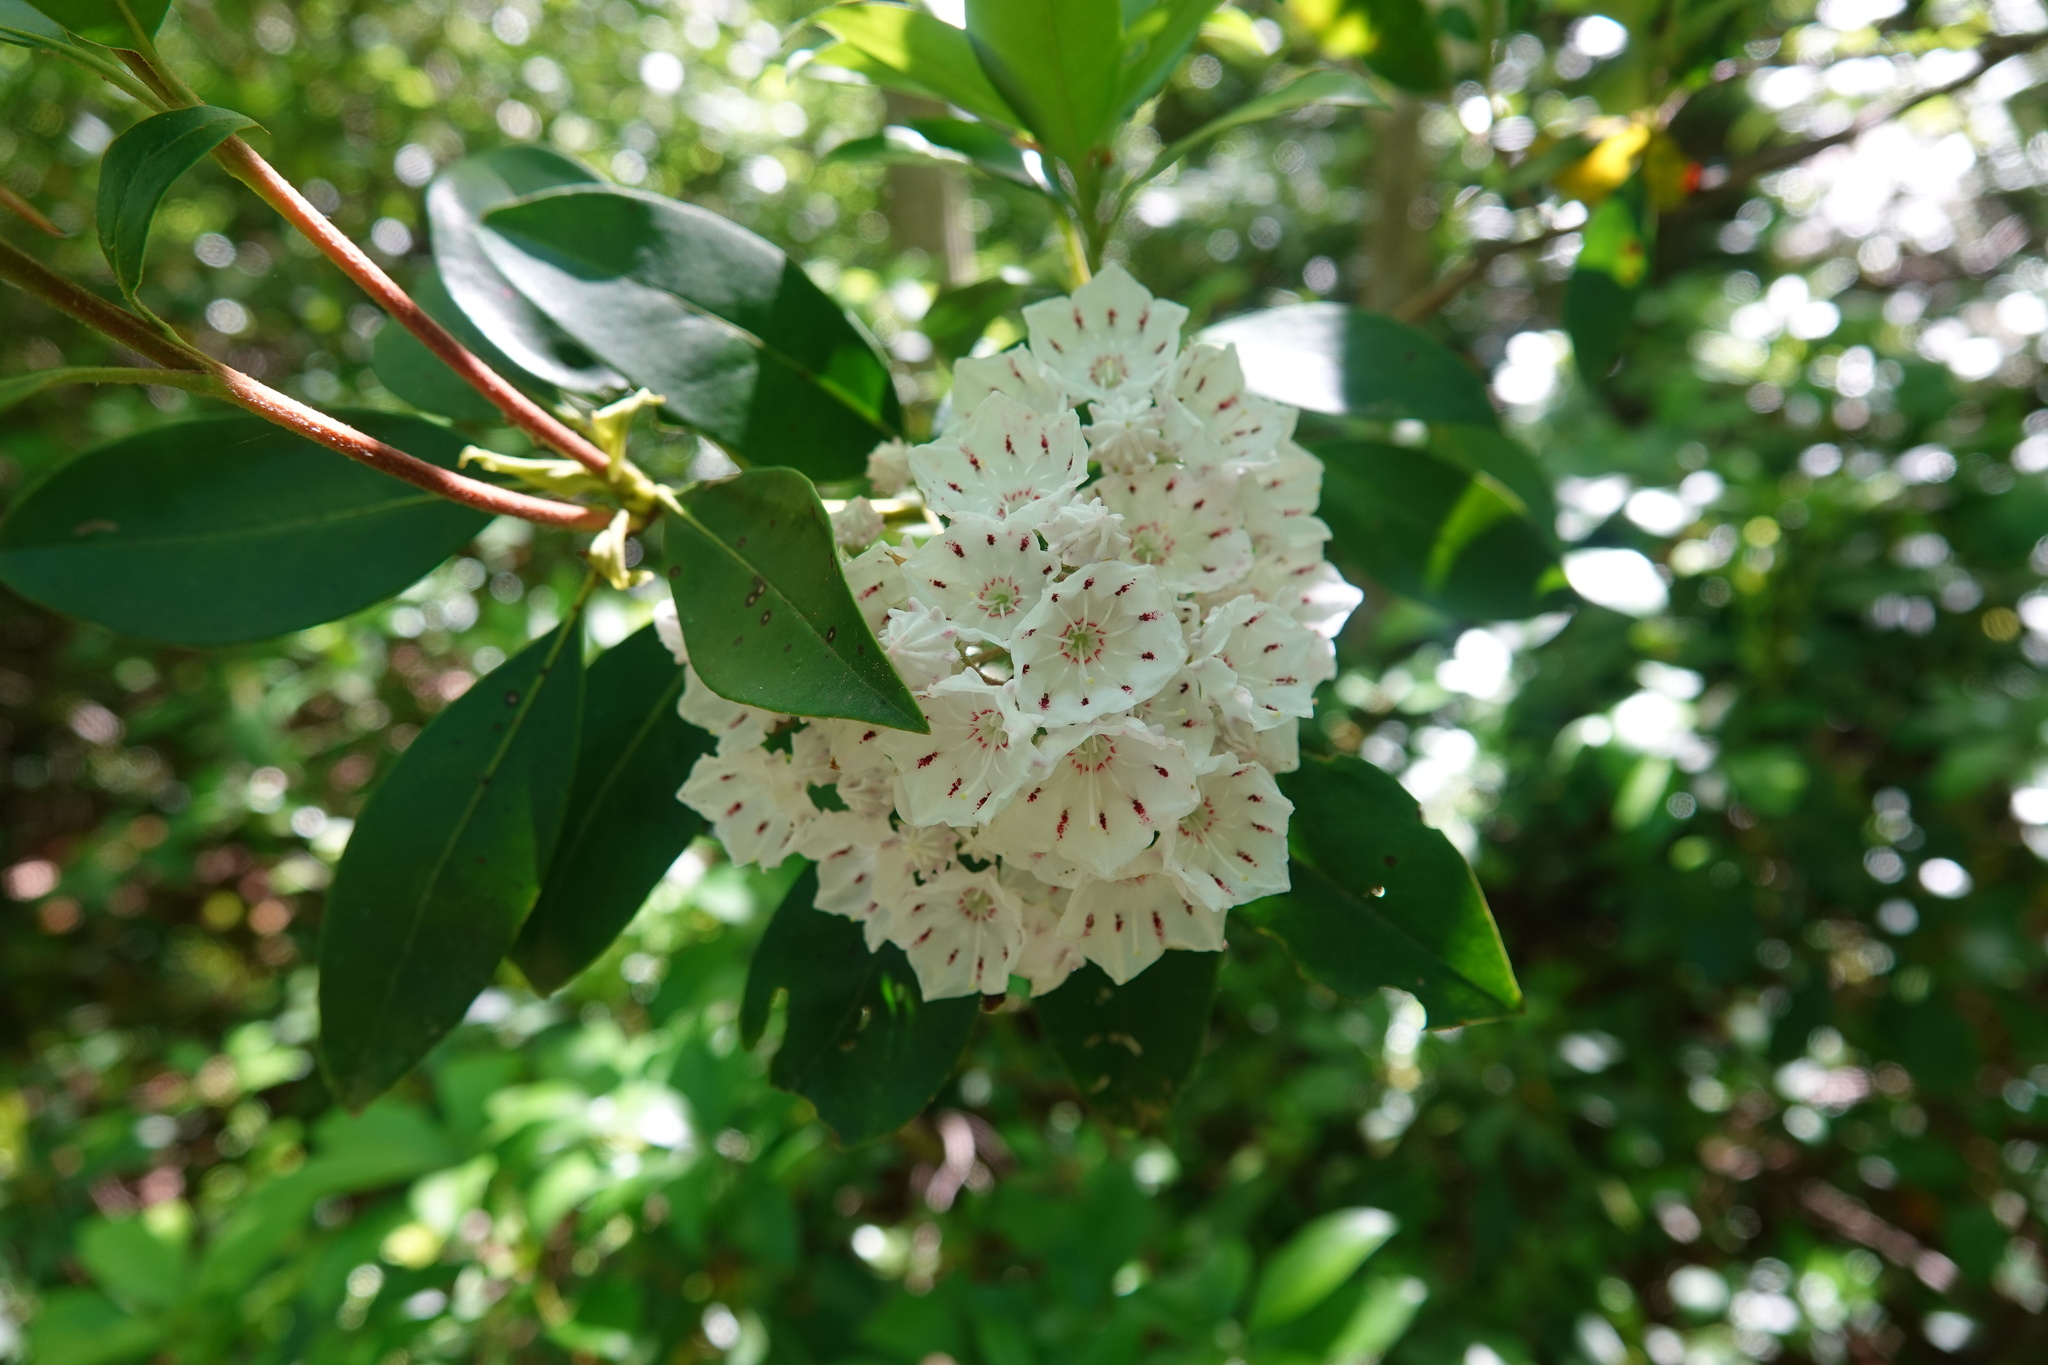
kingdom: Plantae
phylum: Tracheophyta
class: Magnoliopsida
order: Ericales
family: Ericaceae
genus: Kalmia
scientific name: Kalmia latifolia
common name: Mountain-laurel
